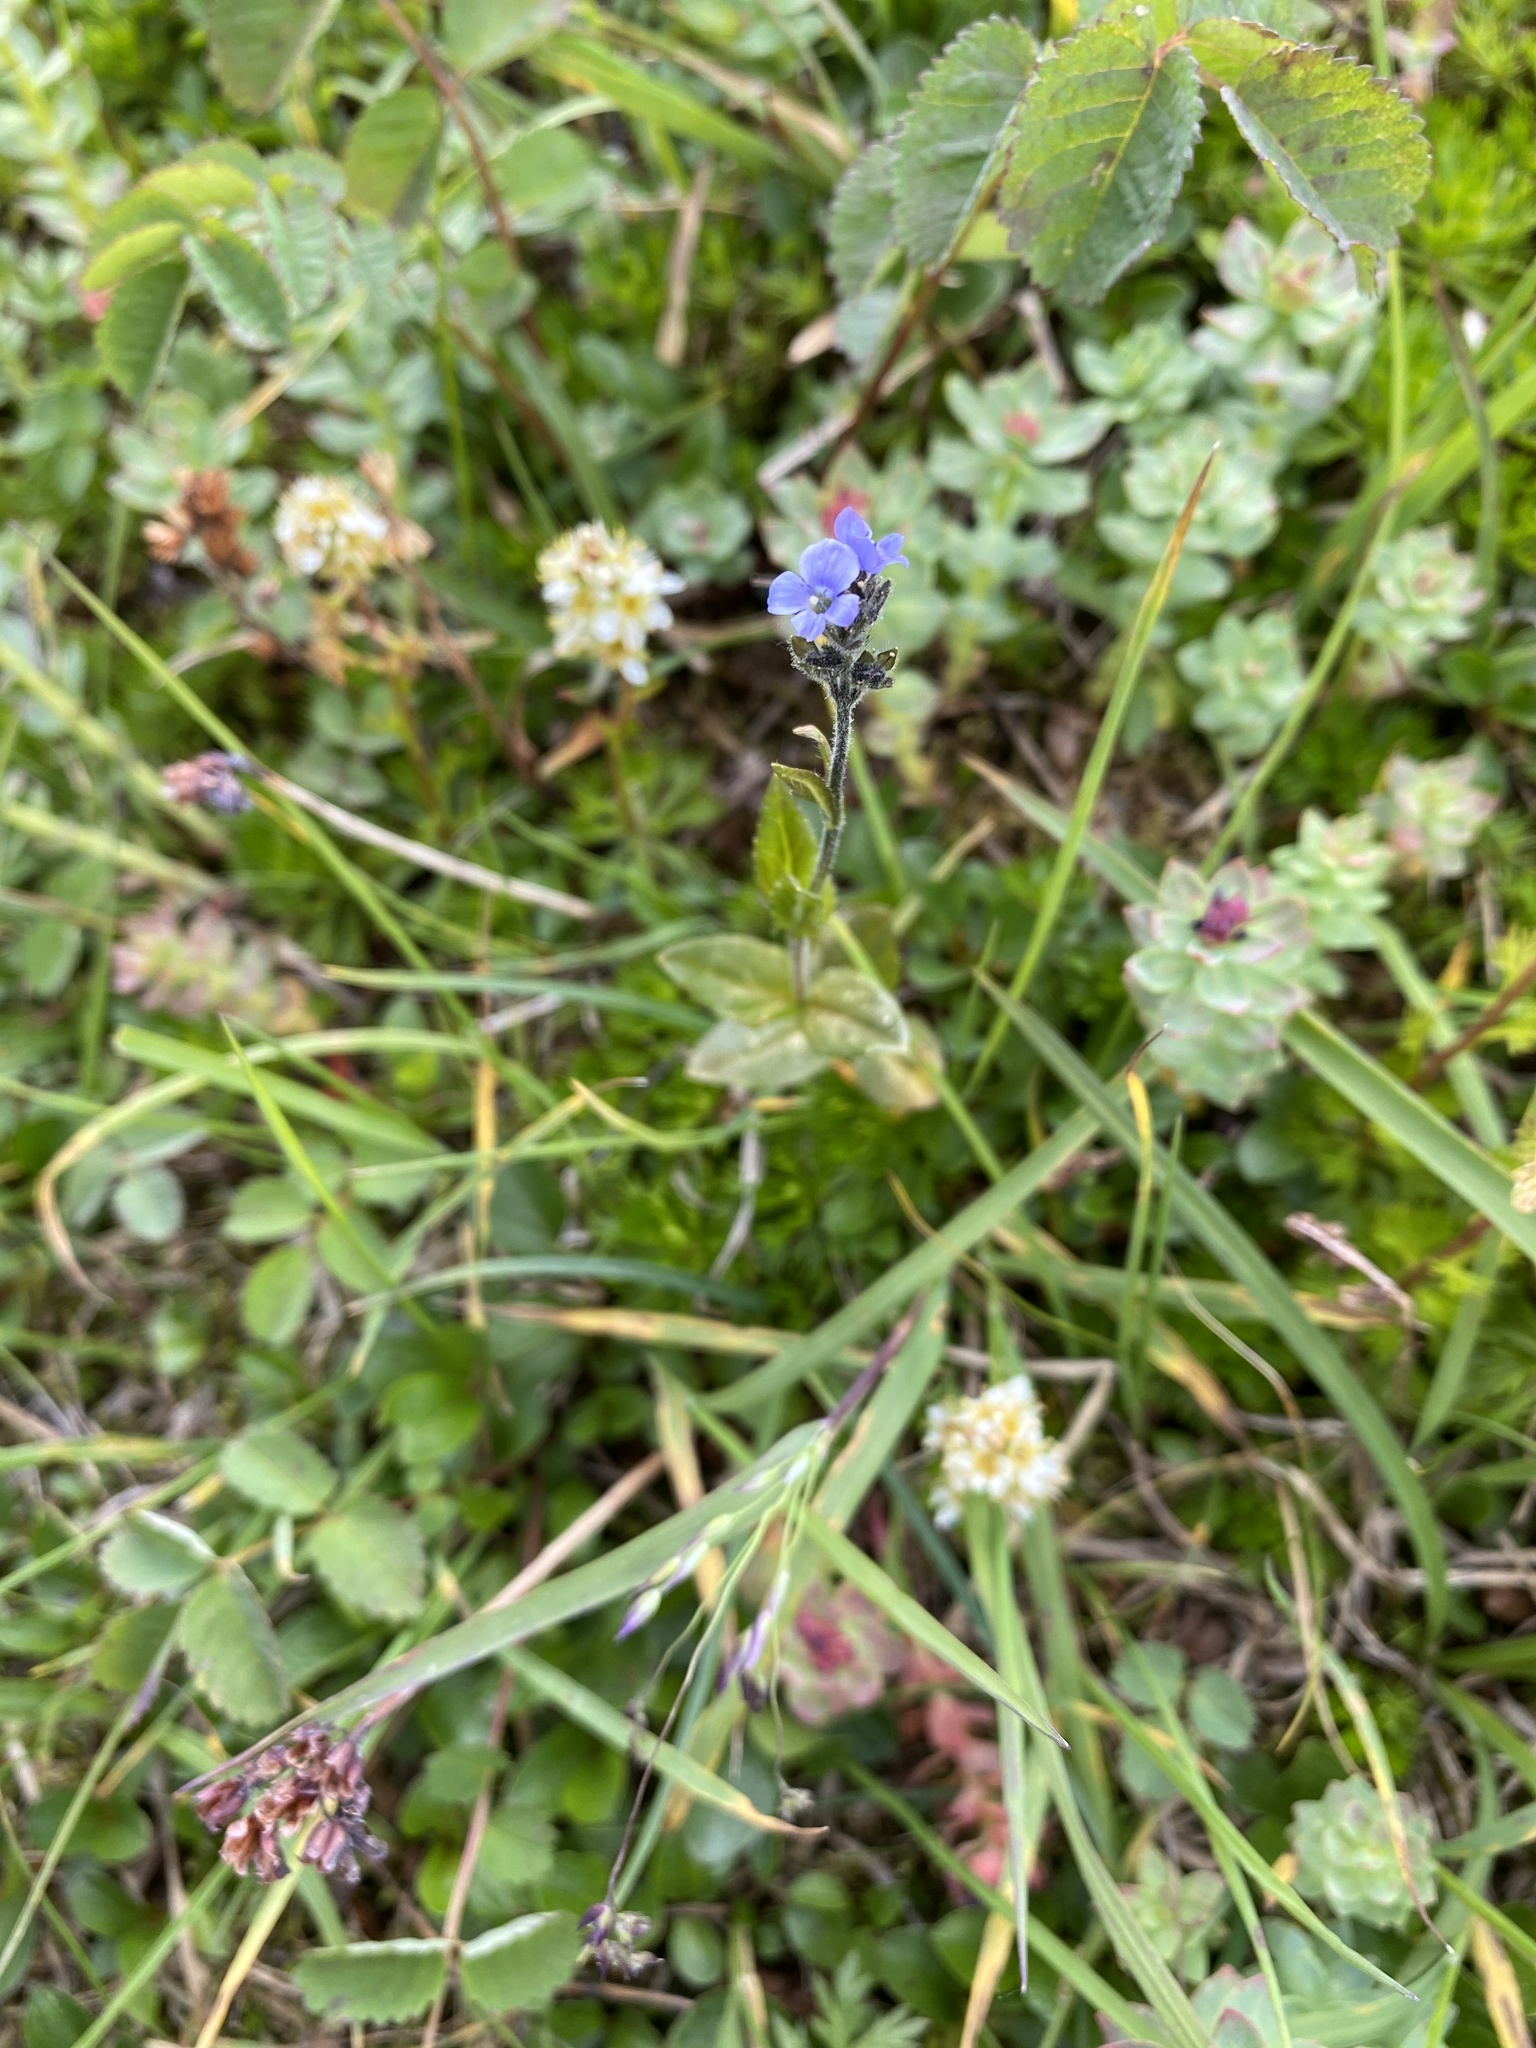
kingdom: Plantae
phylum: Tracheophyta
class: Magnoliopsida
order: Lamiales
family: Plantaginaceae
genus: Veronica
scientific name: Veronica wormskjoldii
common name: American alpine speedwell
